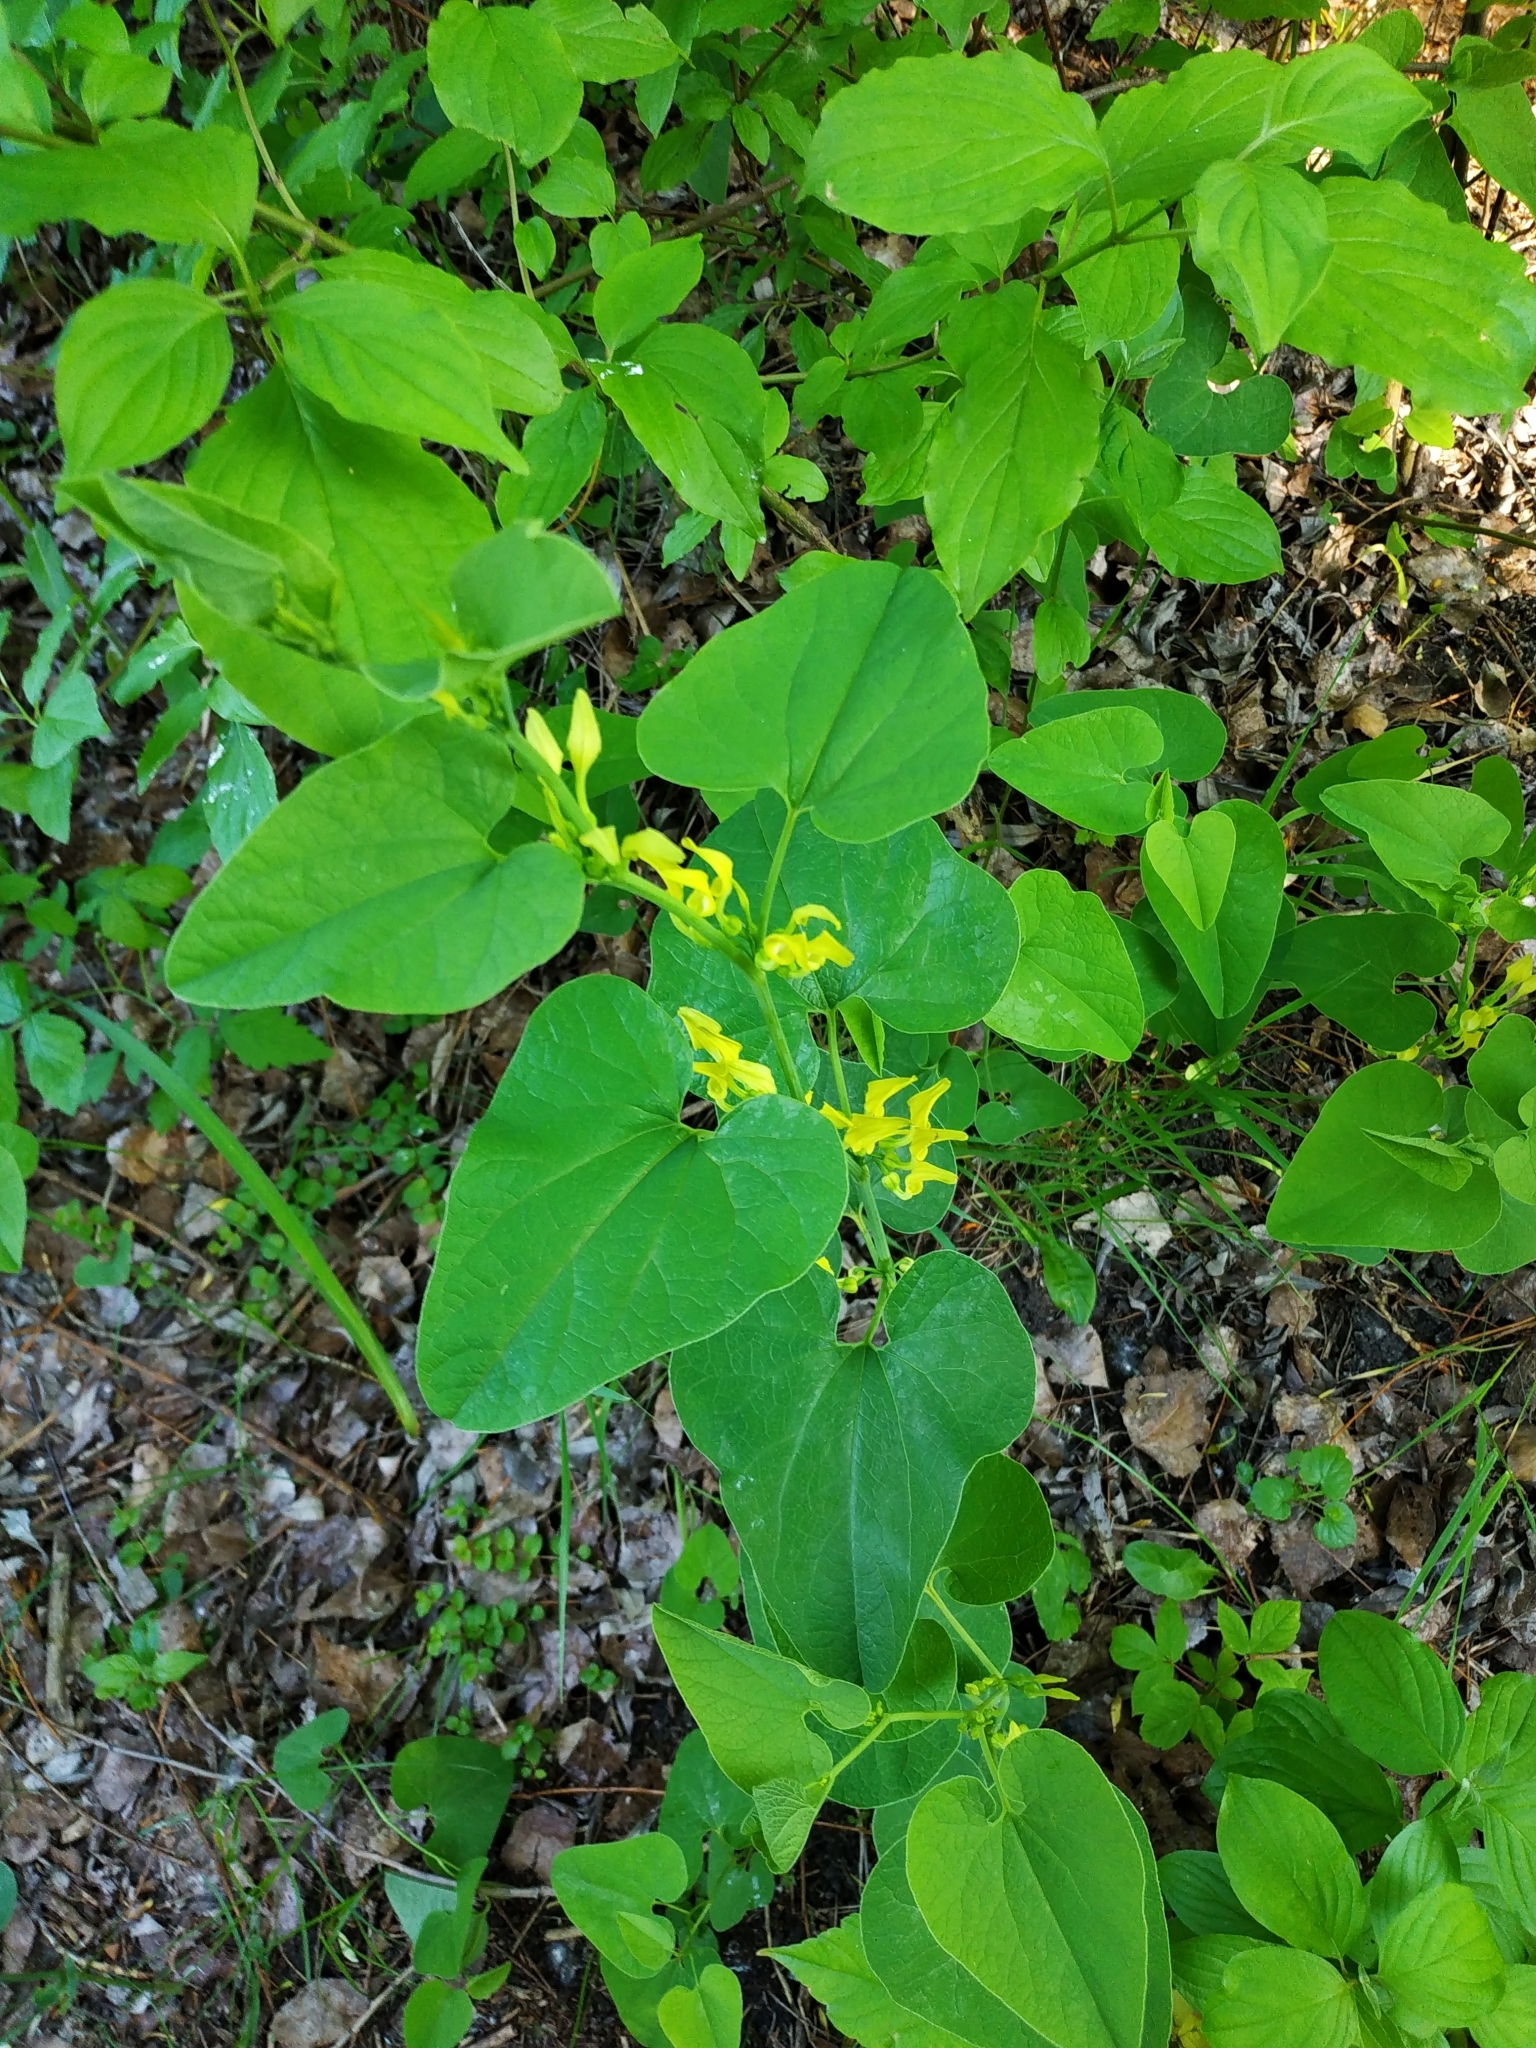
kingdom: Plantae
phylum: Tracheophyta
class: Magnoliopsida
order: Piperales
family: Aristolochiaceae
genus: Aristolochia
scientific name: Aristolochia clematitis
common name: Birthwort
